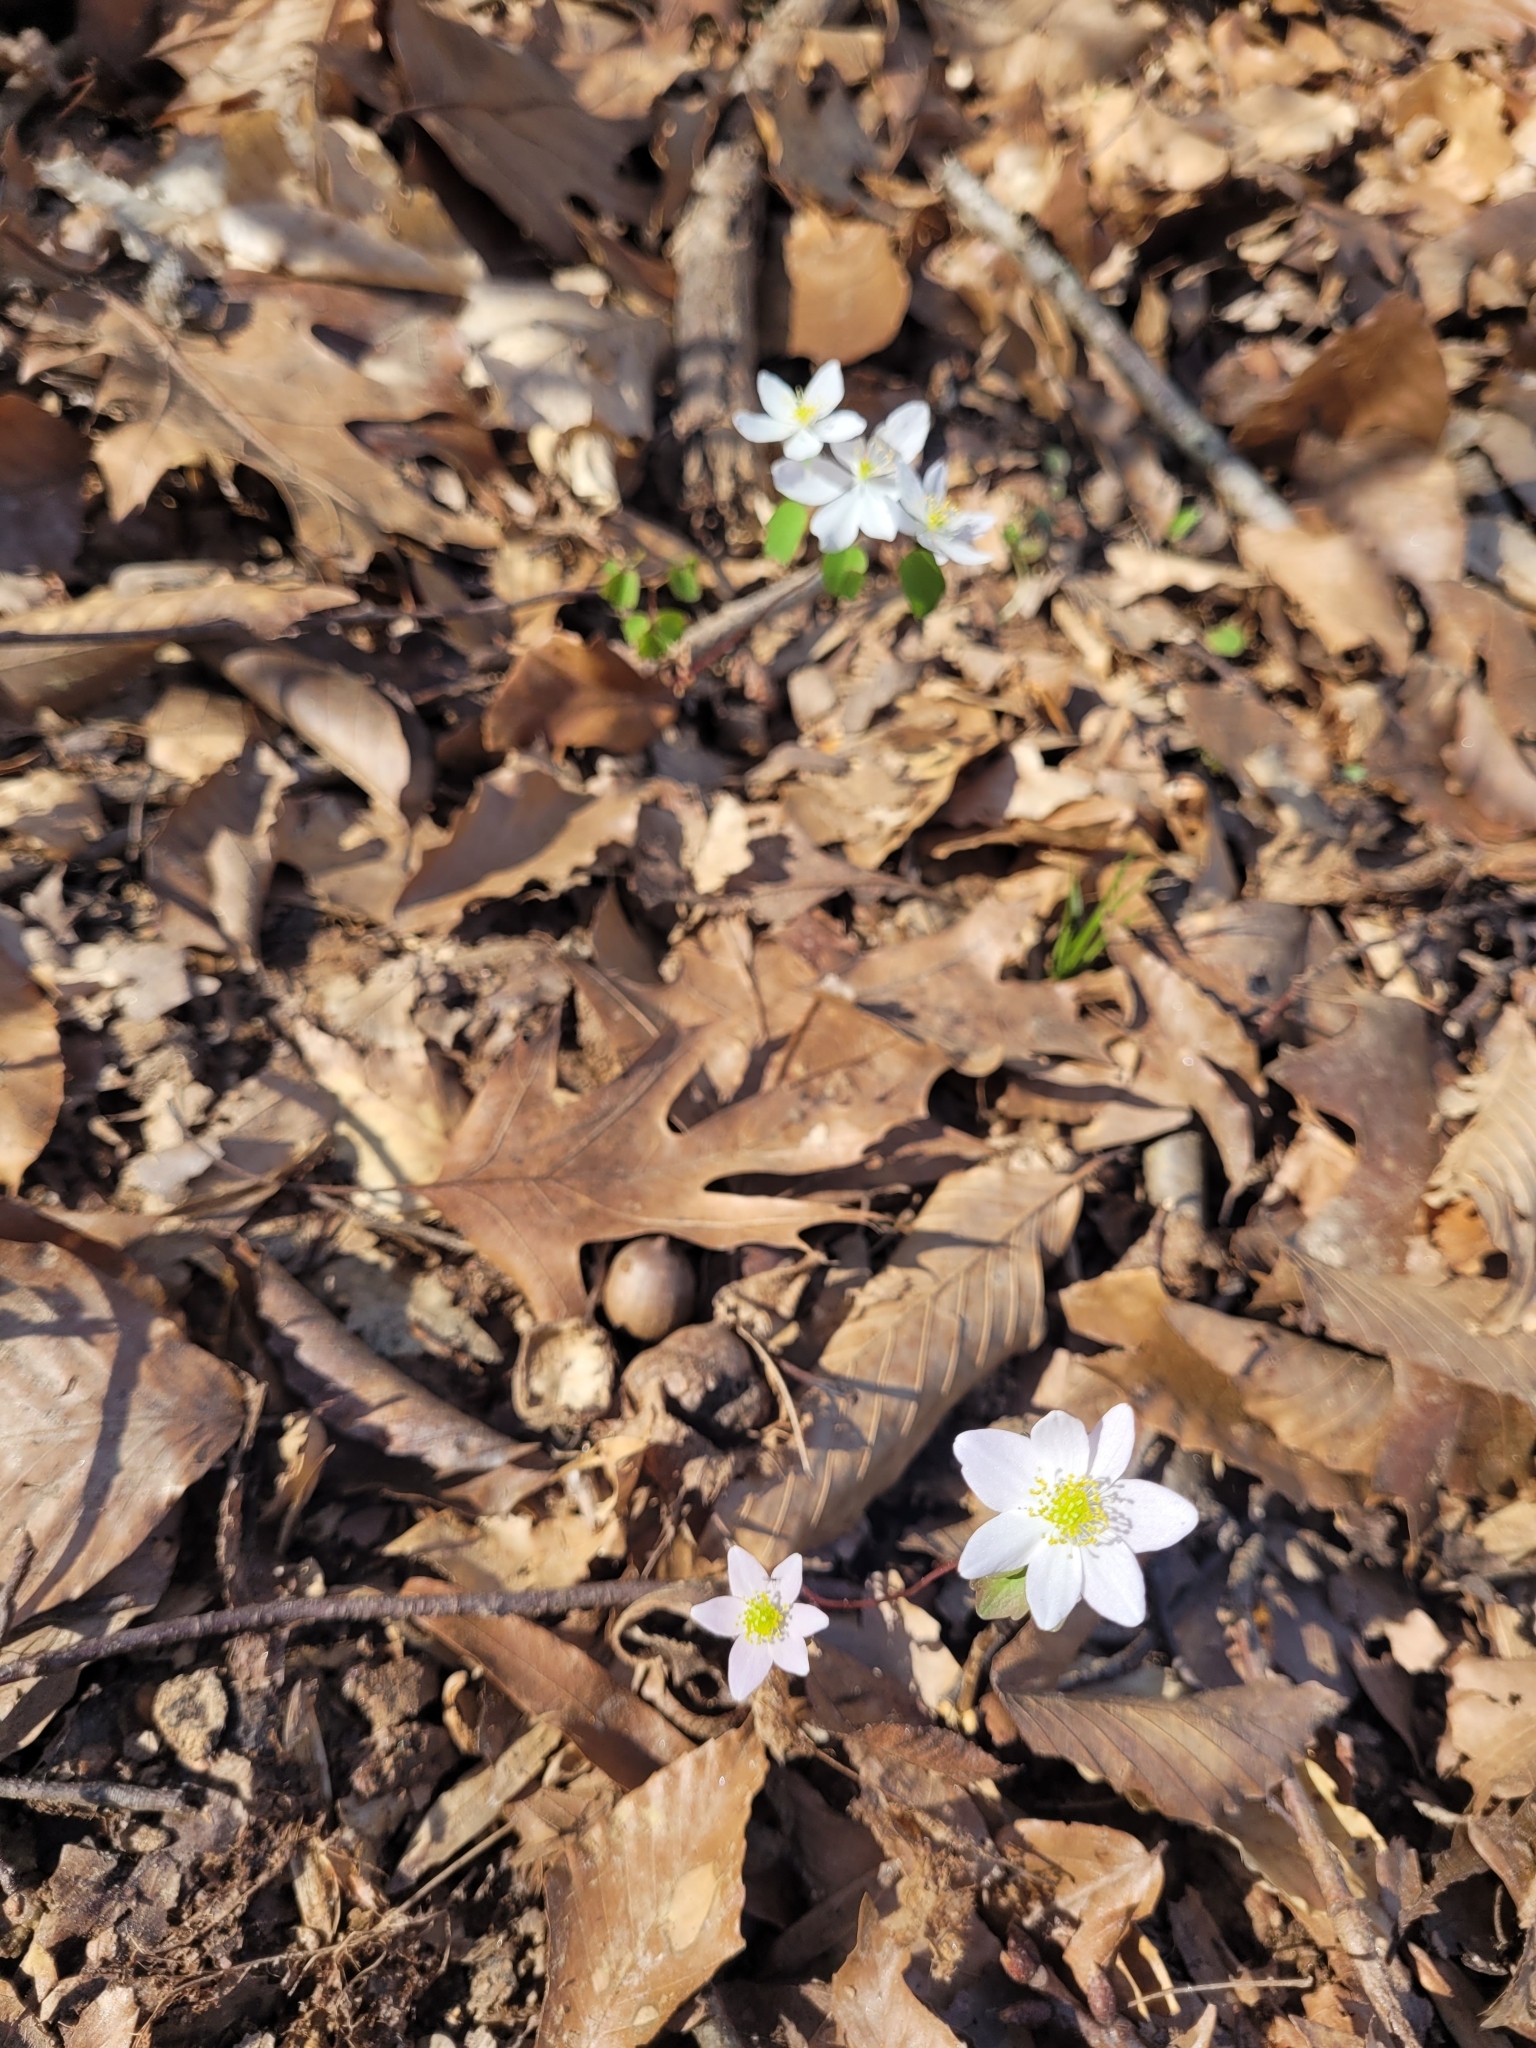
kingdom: Plantae
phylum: Tracheophyta
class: Magnoliopsida
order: Ranunculales
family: Ranunculaceae
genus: Thalictrum
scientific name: Thalictrum thalictroides
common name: Rue-anemone
